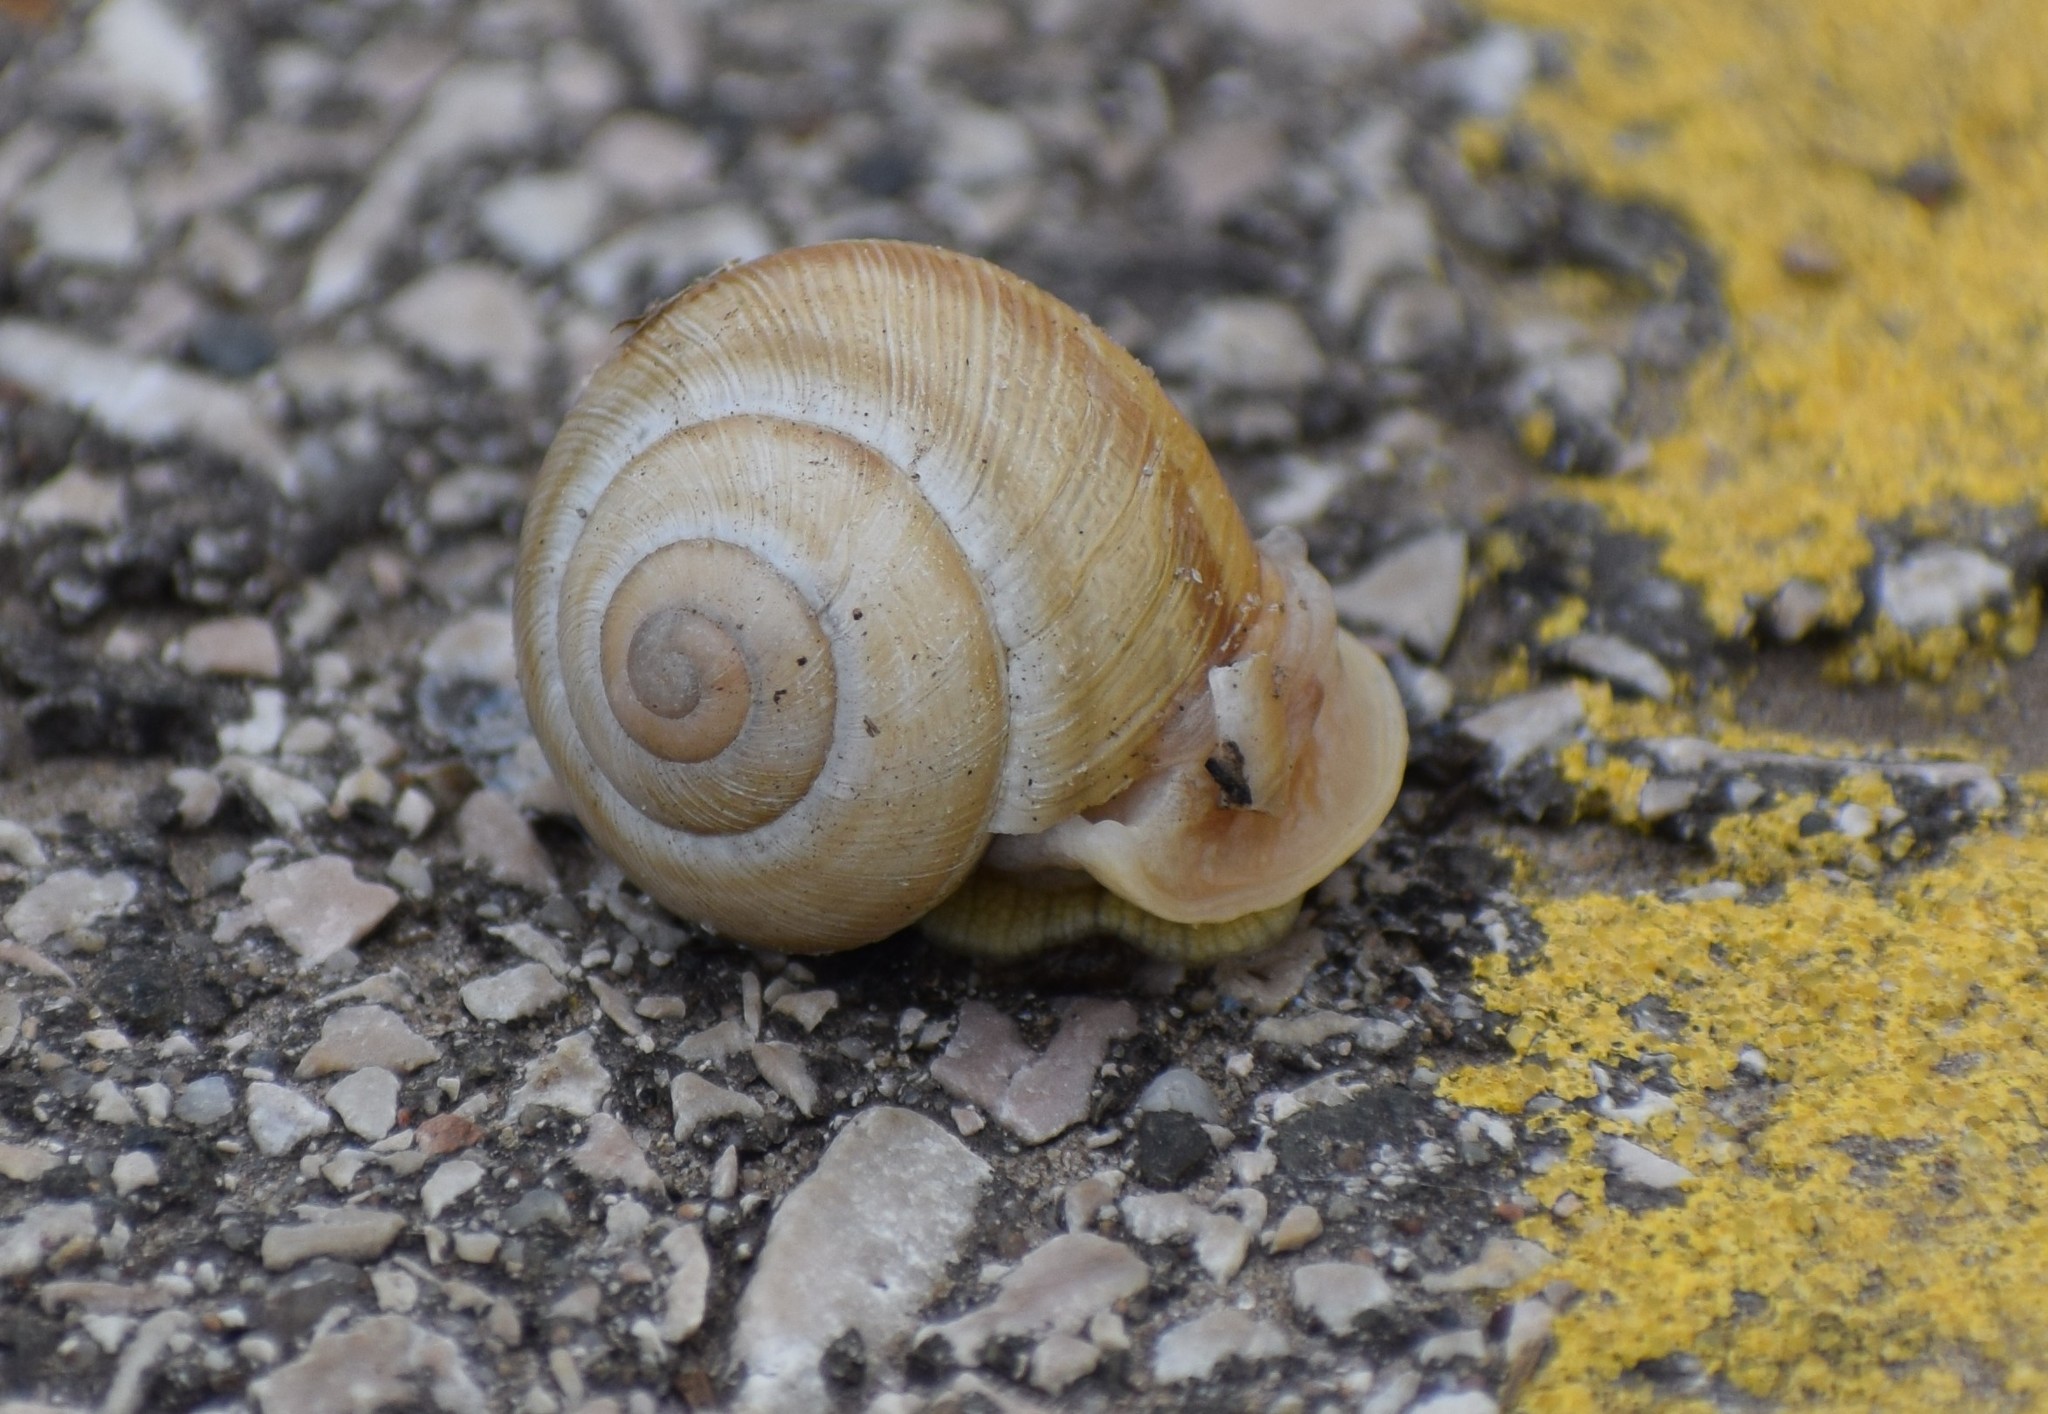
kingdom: Animalia
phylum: Mollusca
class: Gastropoda
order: Stylommatophora
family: Helicidae
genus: Caucasotachea
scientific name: Caucasotachea vindobonensis
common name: European helicid land snail
